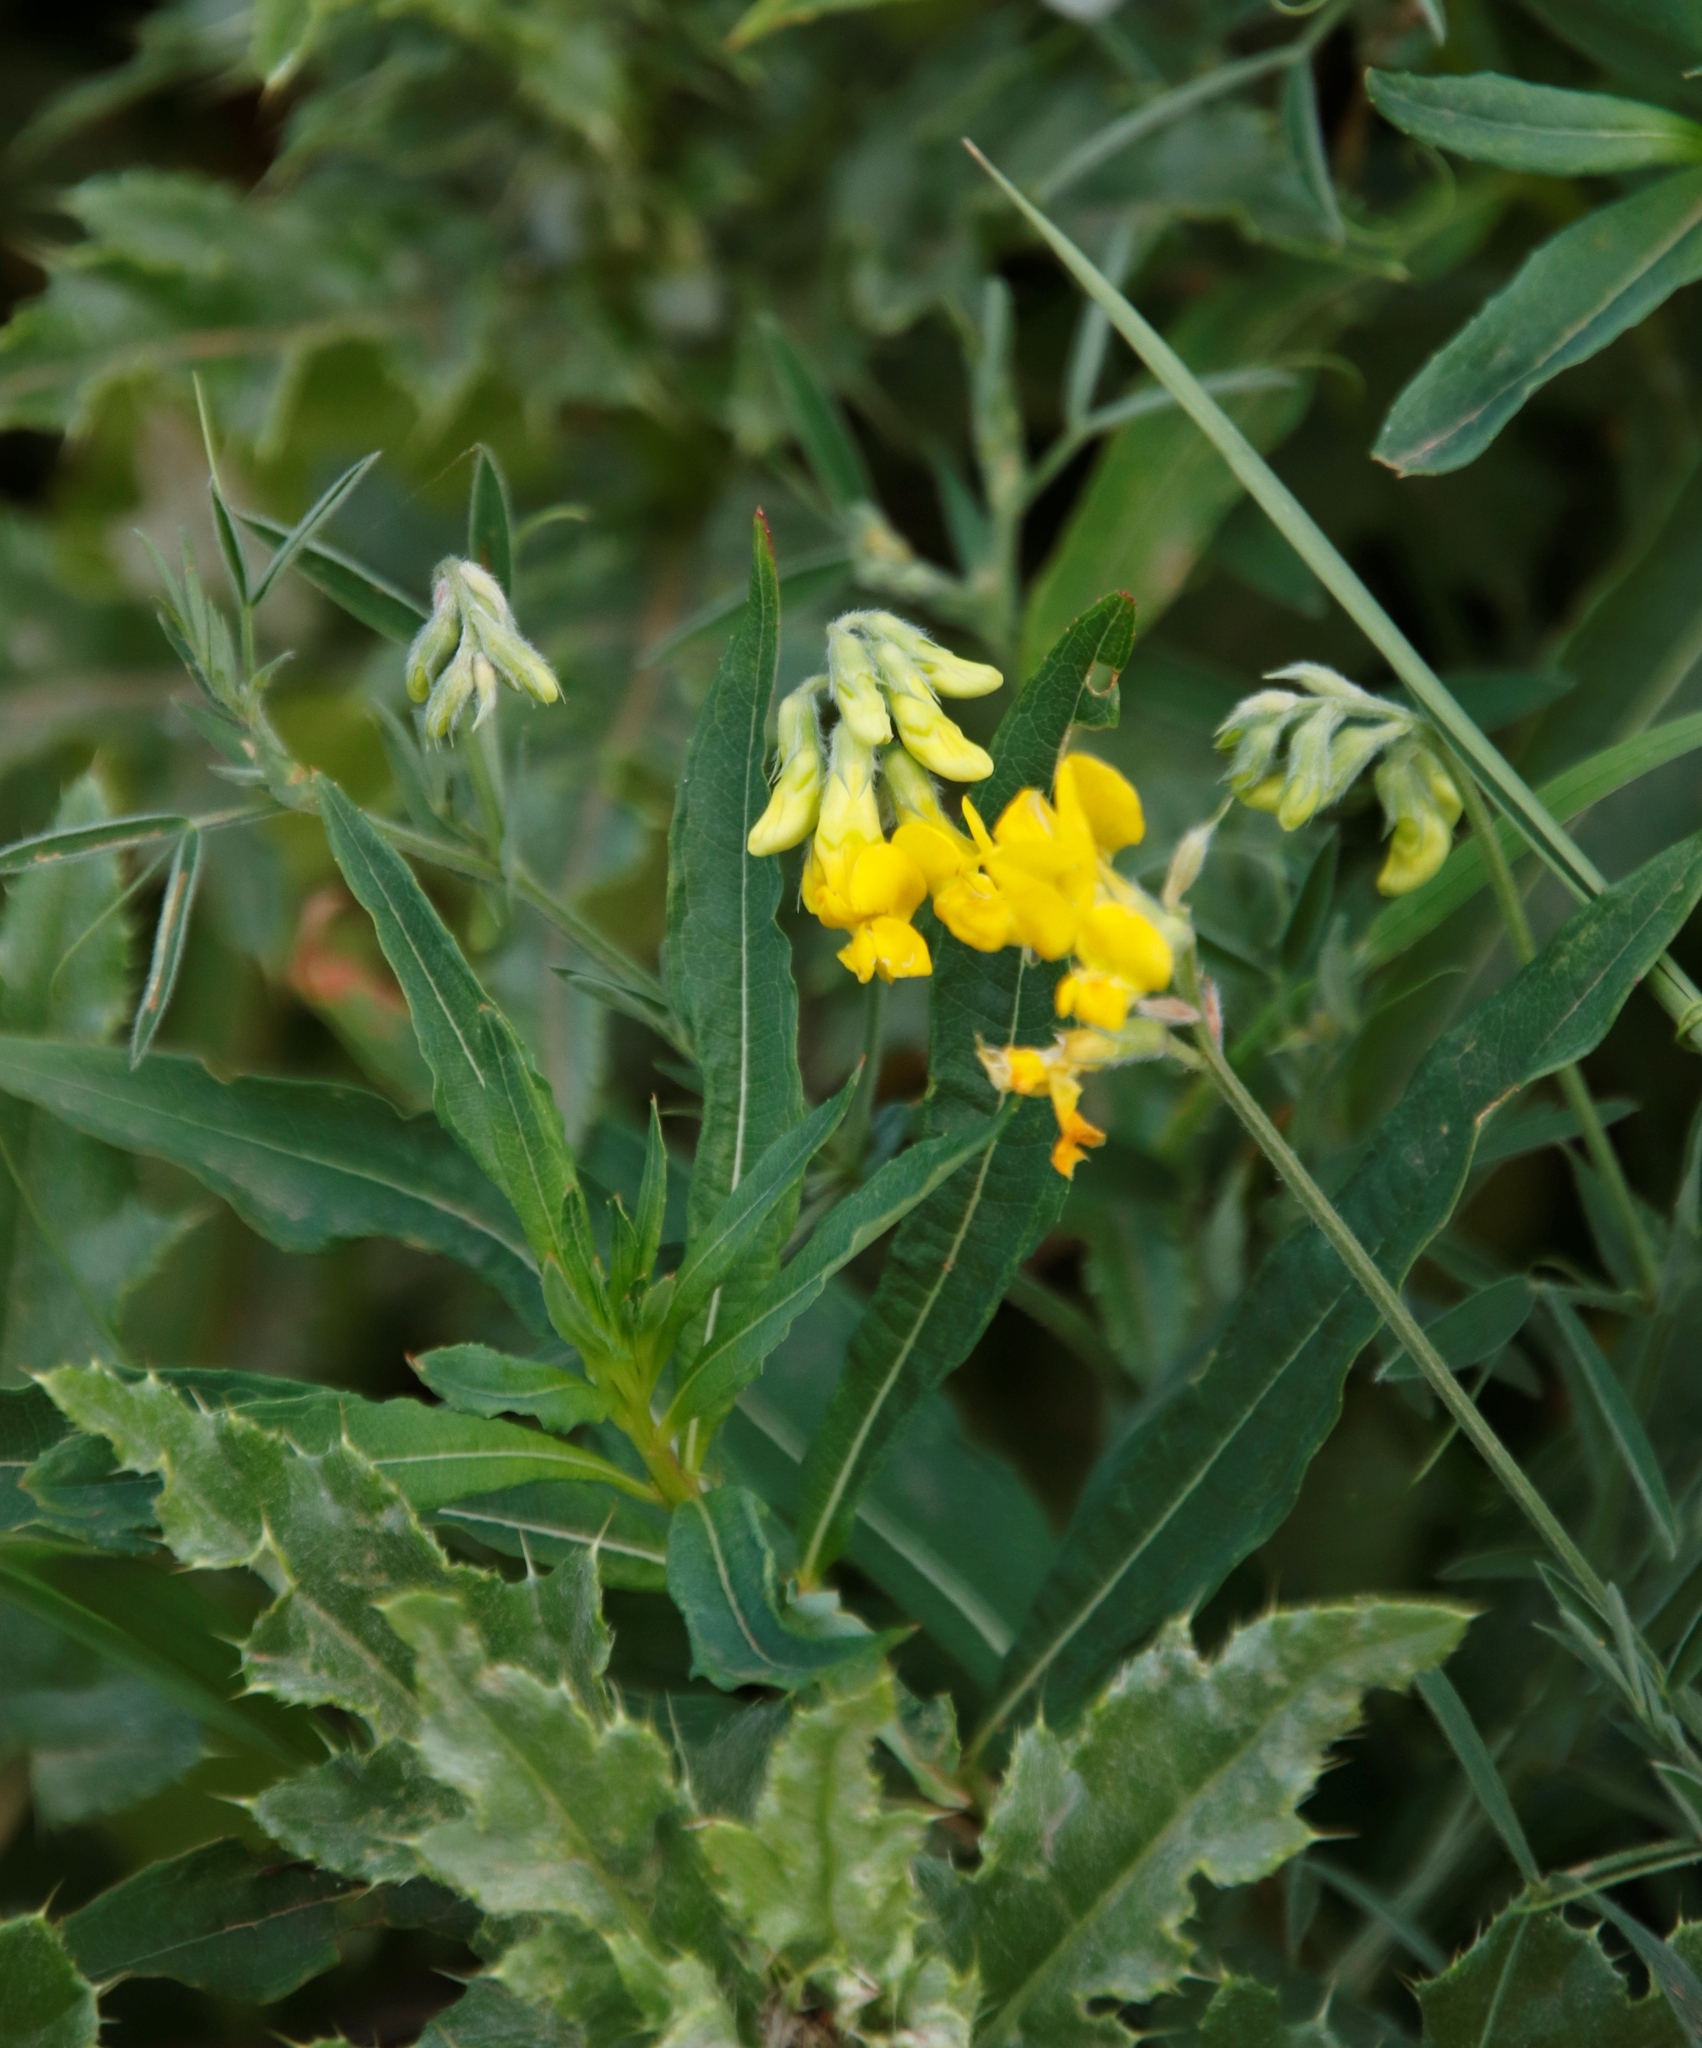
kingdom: Plantae
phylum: Tracheophyta
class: Magnoliopsida
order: Fabales
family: Fabaceae
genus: Lathyrus
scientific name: Lathyrus pratensis
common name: Meadow vetchling
